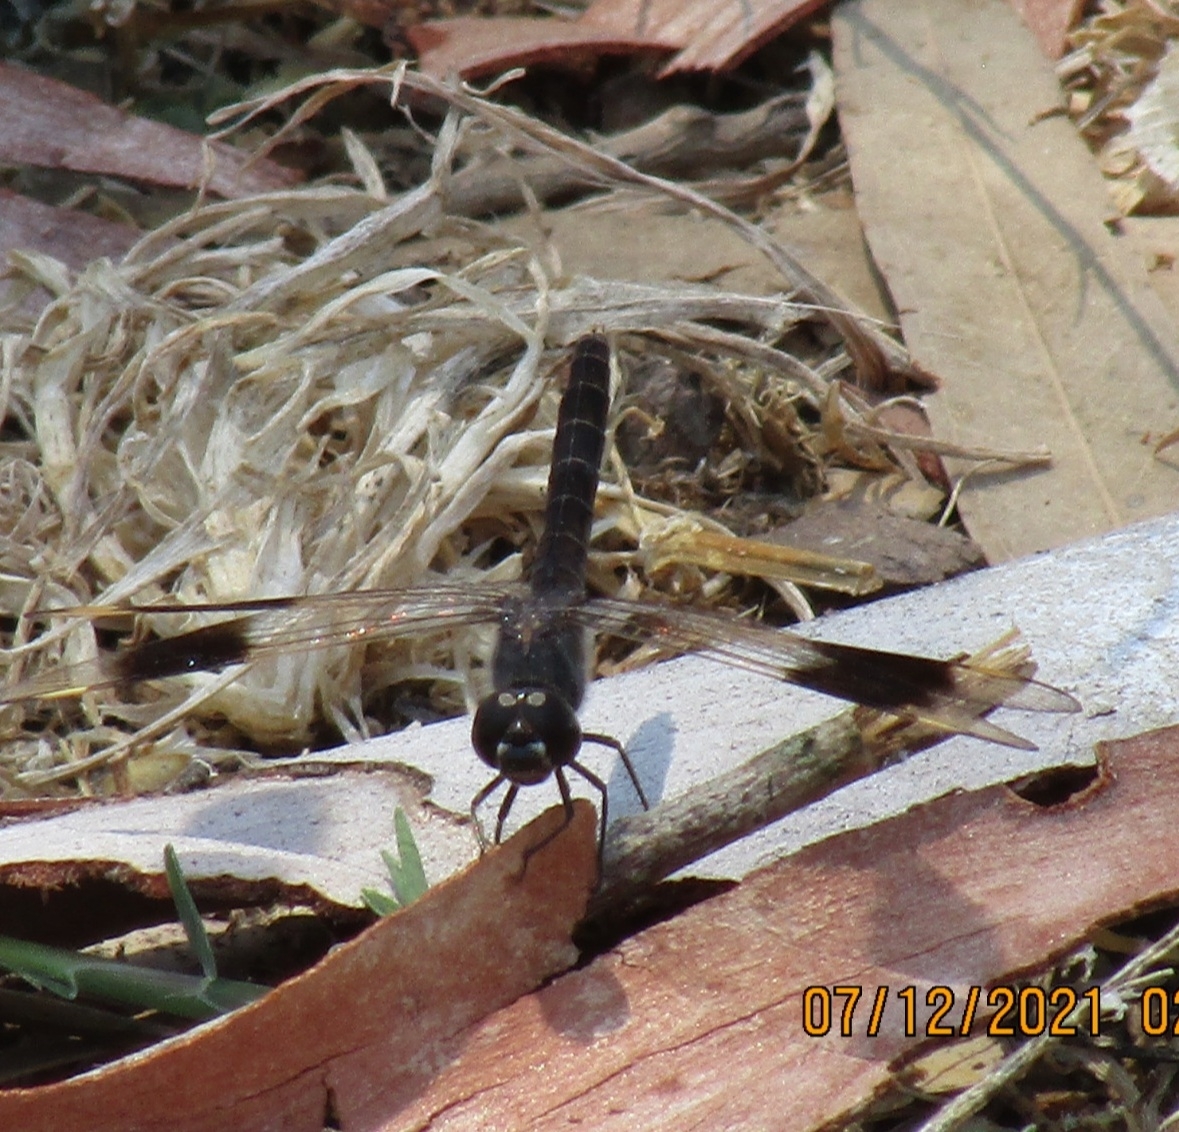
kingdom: Animalia
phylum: Arthropoda
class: Insecta
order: Odonata
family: Libellulidae
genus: Brachythemis
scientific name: Brachythemis impartita
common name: Banded groundling
